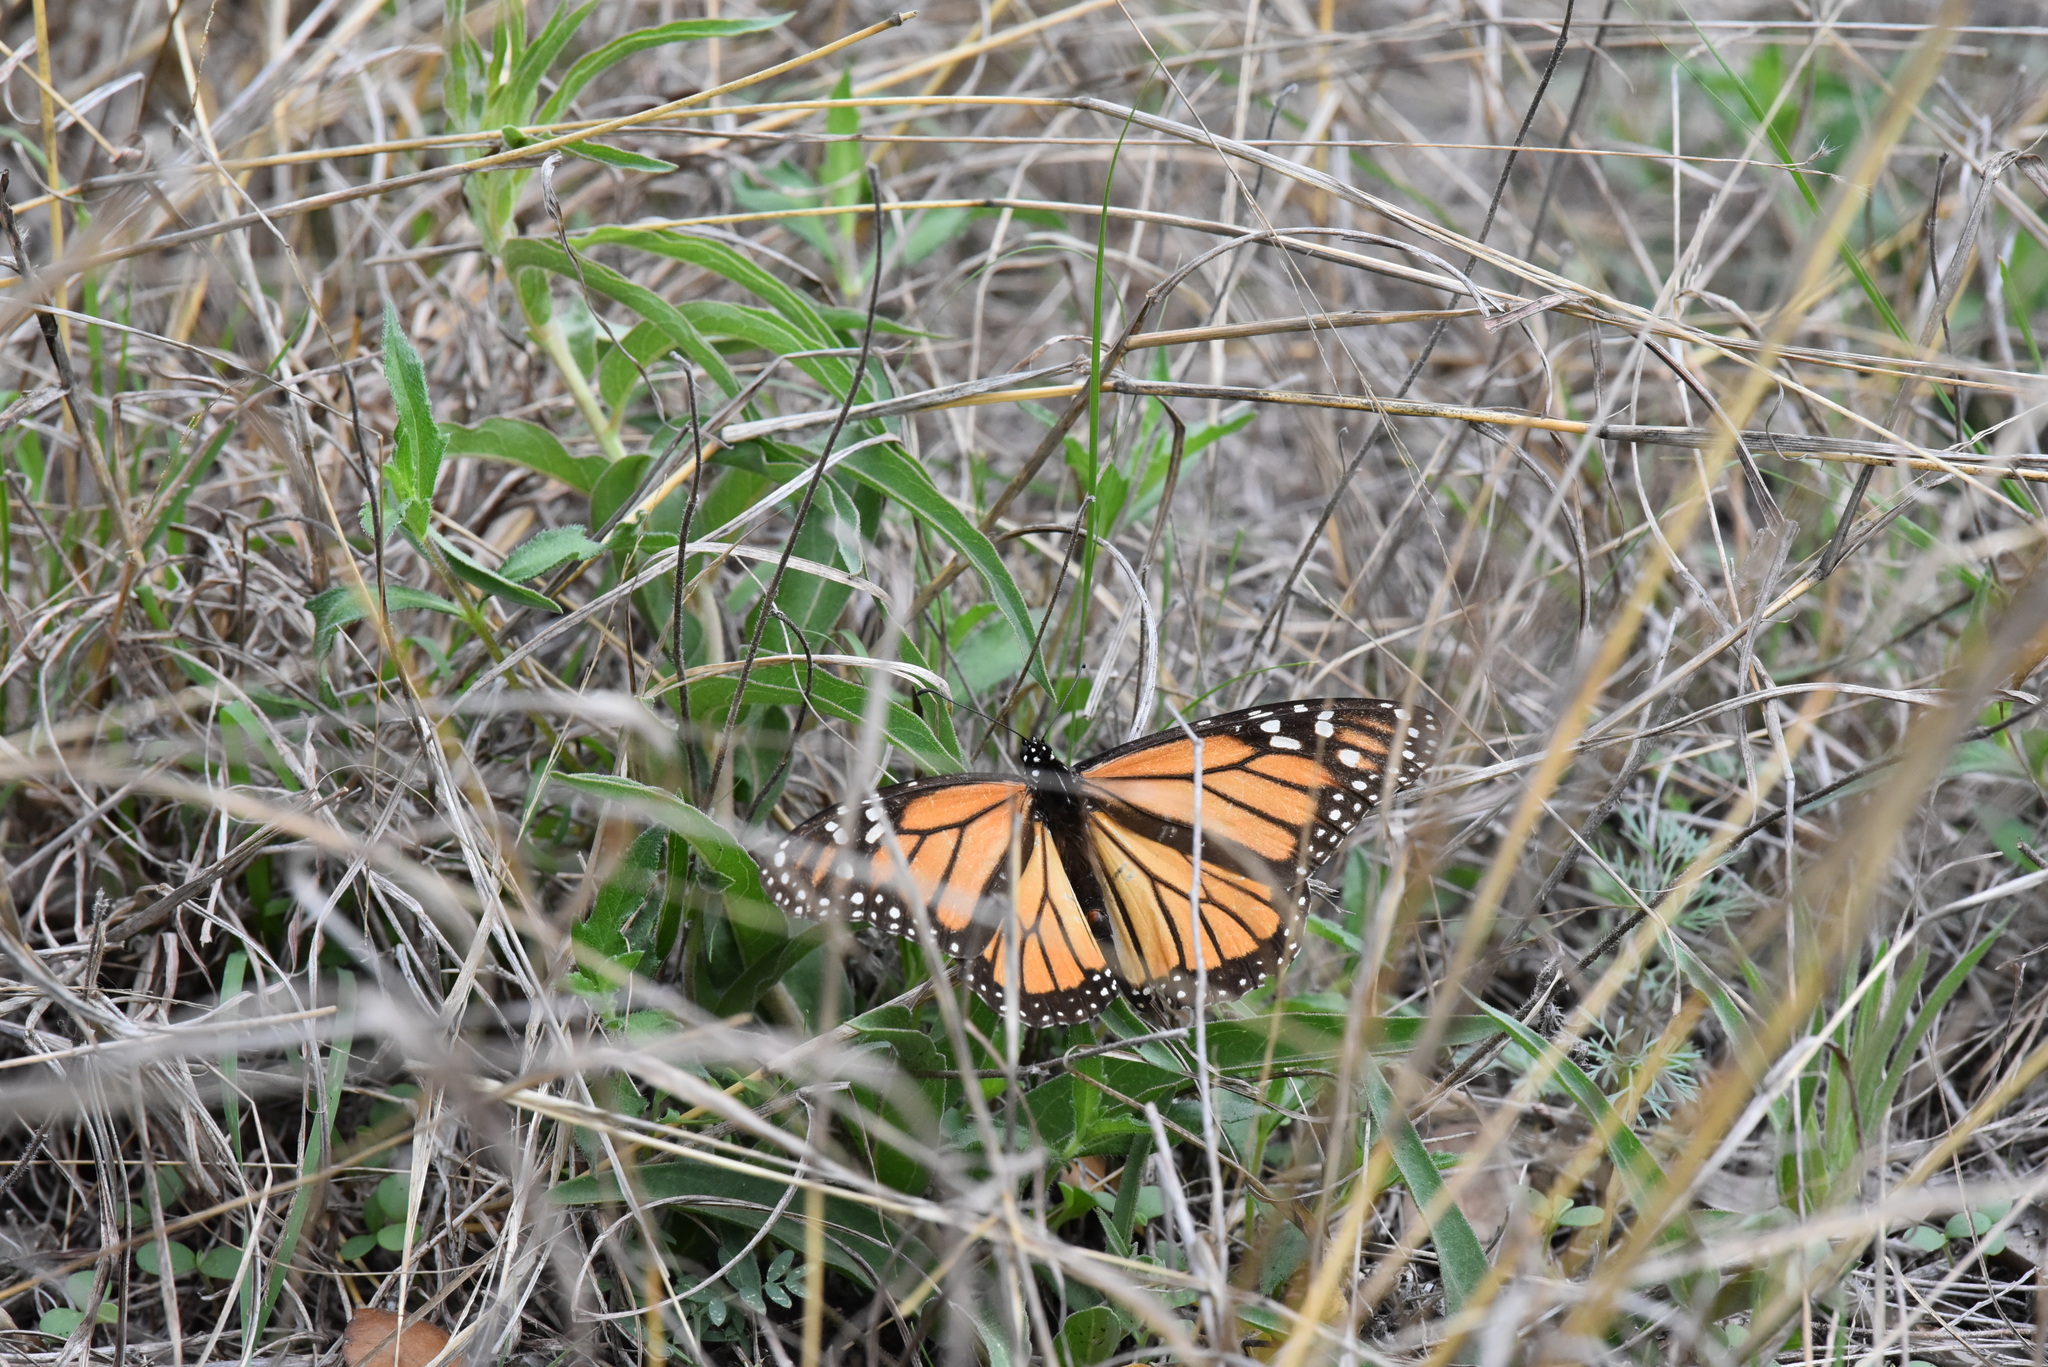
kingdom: Animalia
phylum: Arthropoda
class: Insecta
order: Lepidoptera
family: Nymphalidae
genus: Danaus
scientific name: Danaus plexippus
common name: Monarch
